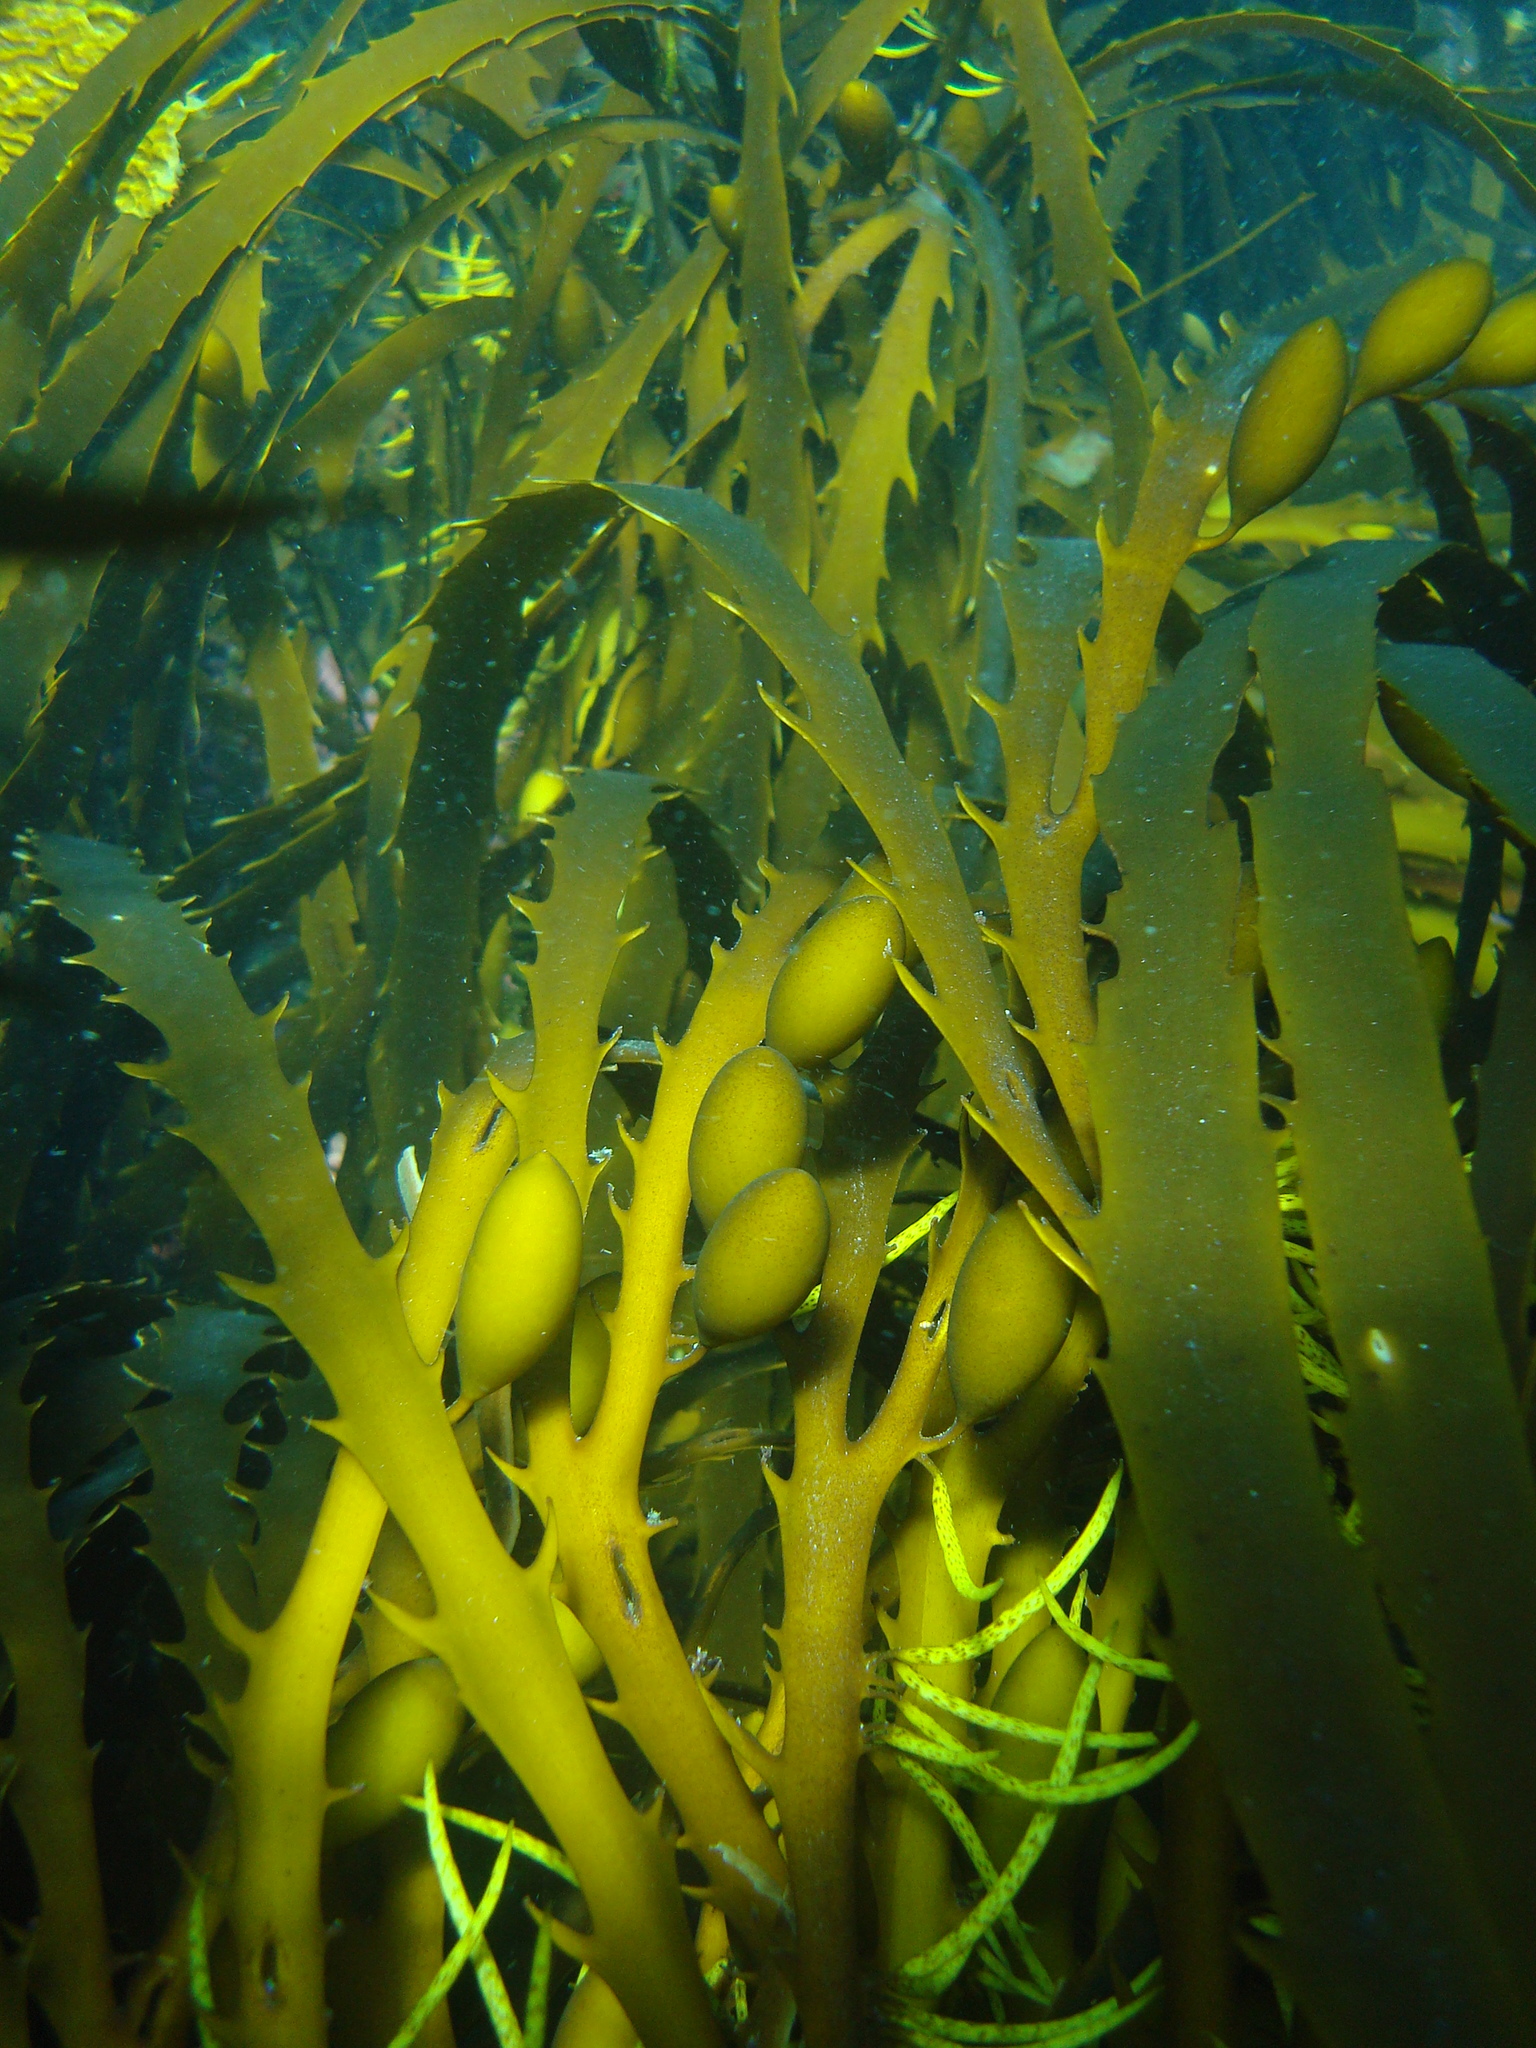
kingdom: Chromista
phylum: Ochrophyta
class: Phaeophyceae
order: Fucales
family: Seirococcaceae
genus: Marginariella
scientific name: Marginariella boryana
